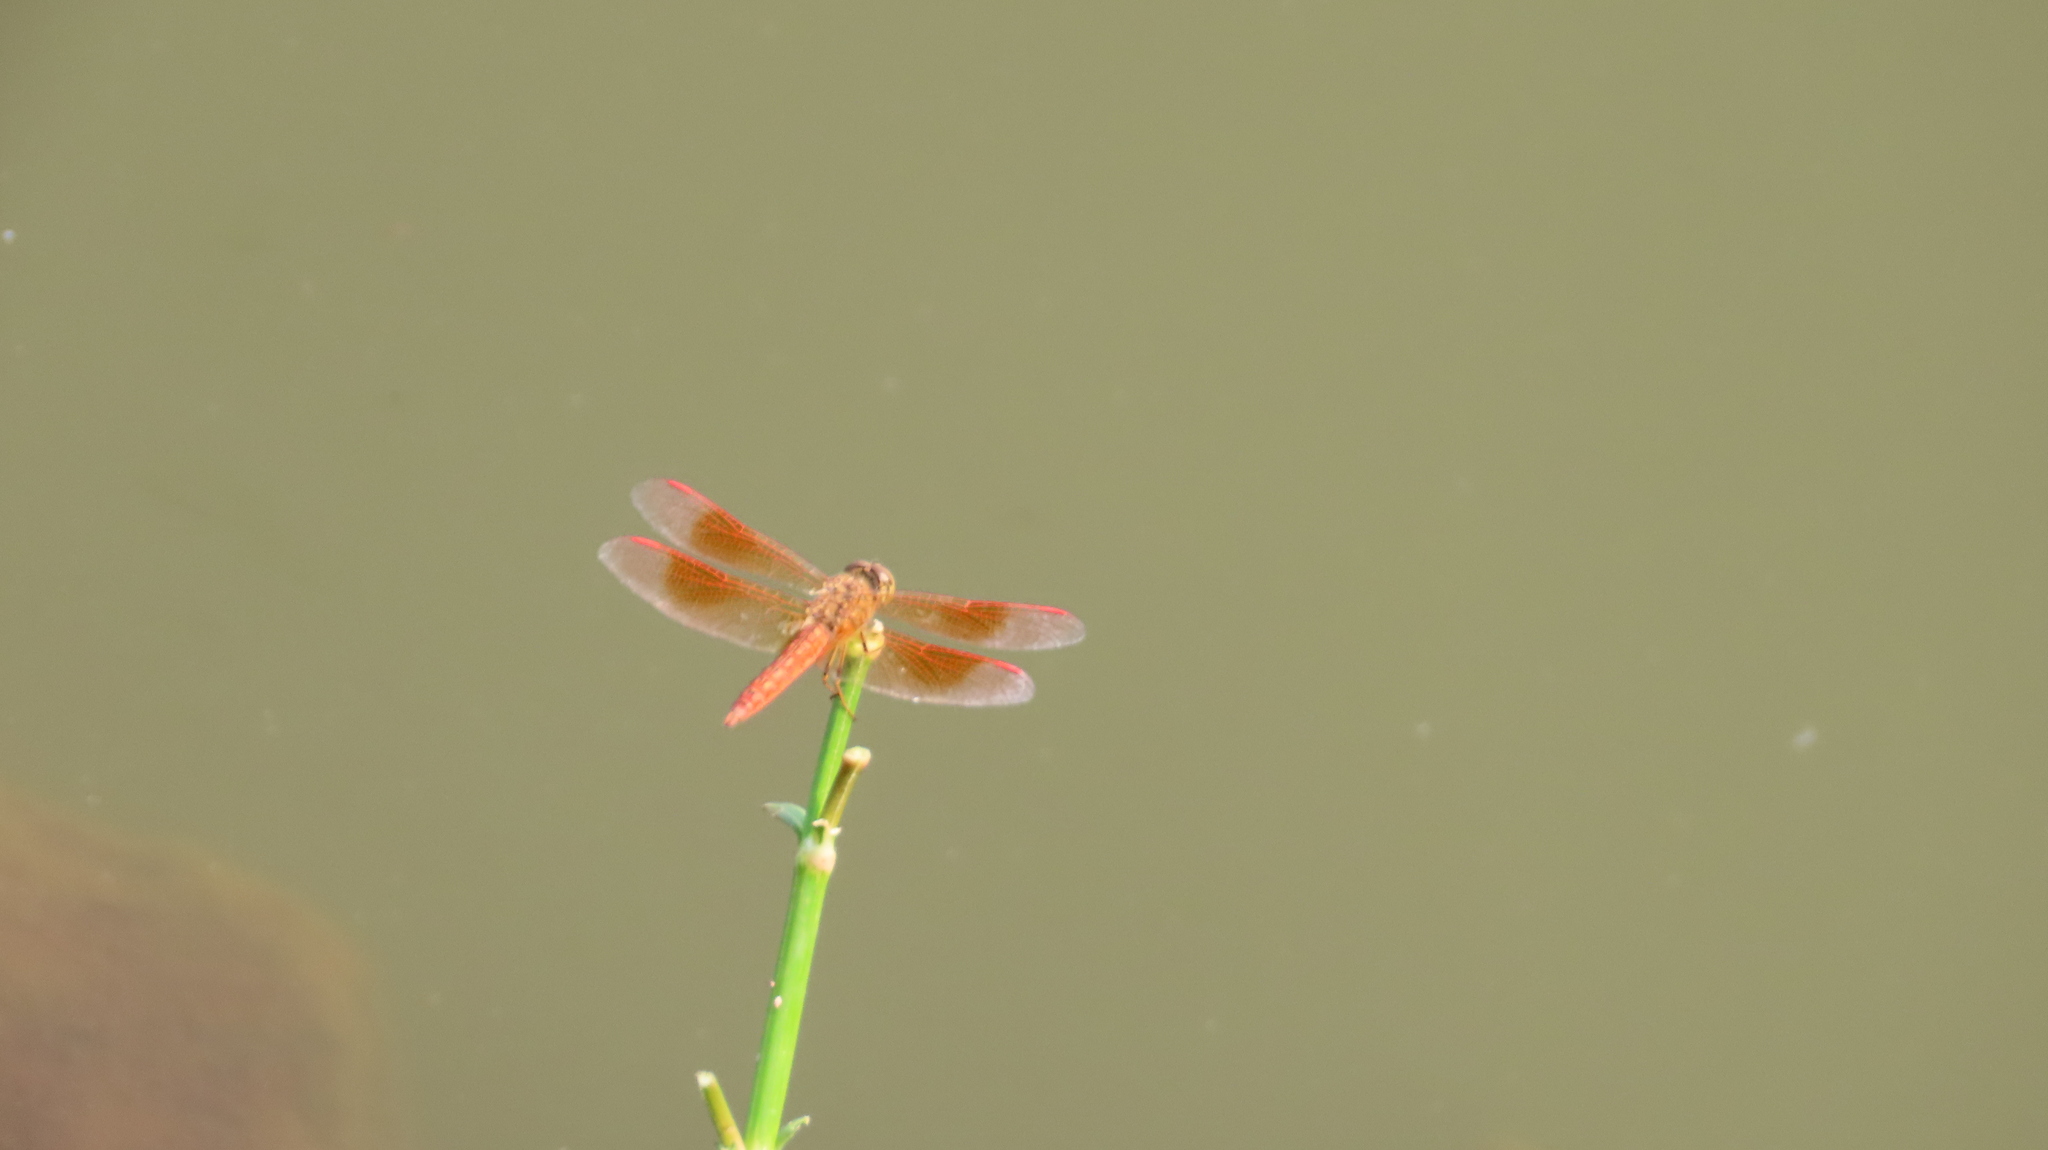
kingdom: Animalia
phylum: Arthropoda
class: Insecta
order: Odonata
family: Libellulidae
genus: Brachythemis
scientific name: Brachythemis contaminata
